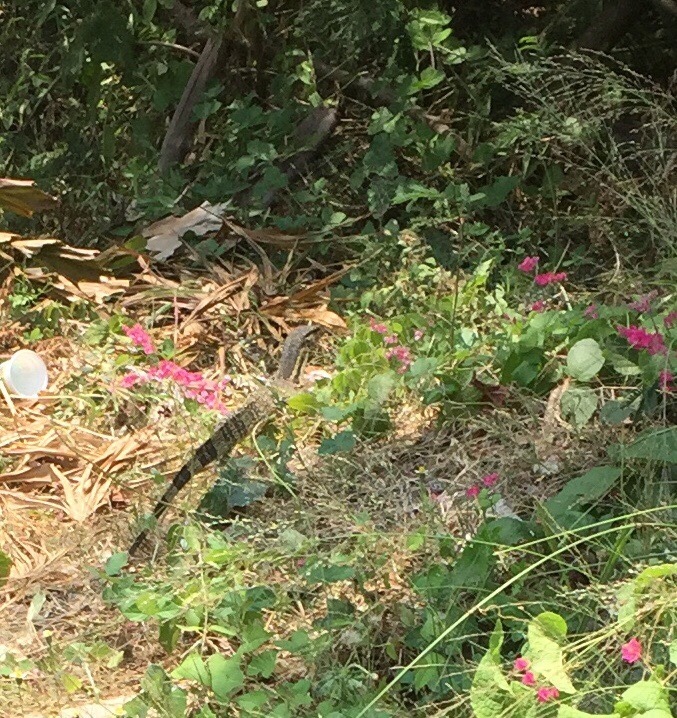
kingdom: Animalia
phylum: Chordata
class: Squamata
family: Varanidae
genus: Varanus
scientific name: Varanus salvator
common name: Common water monitor
